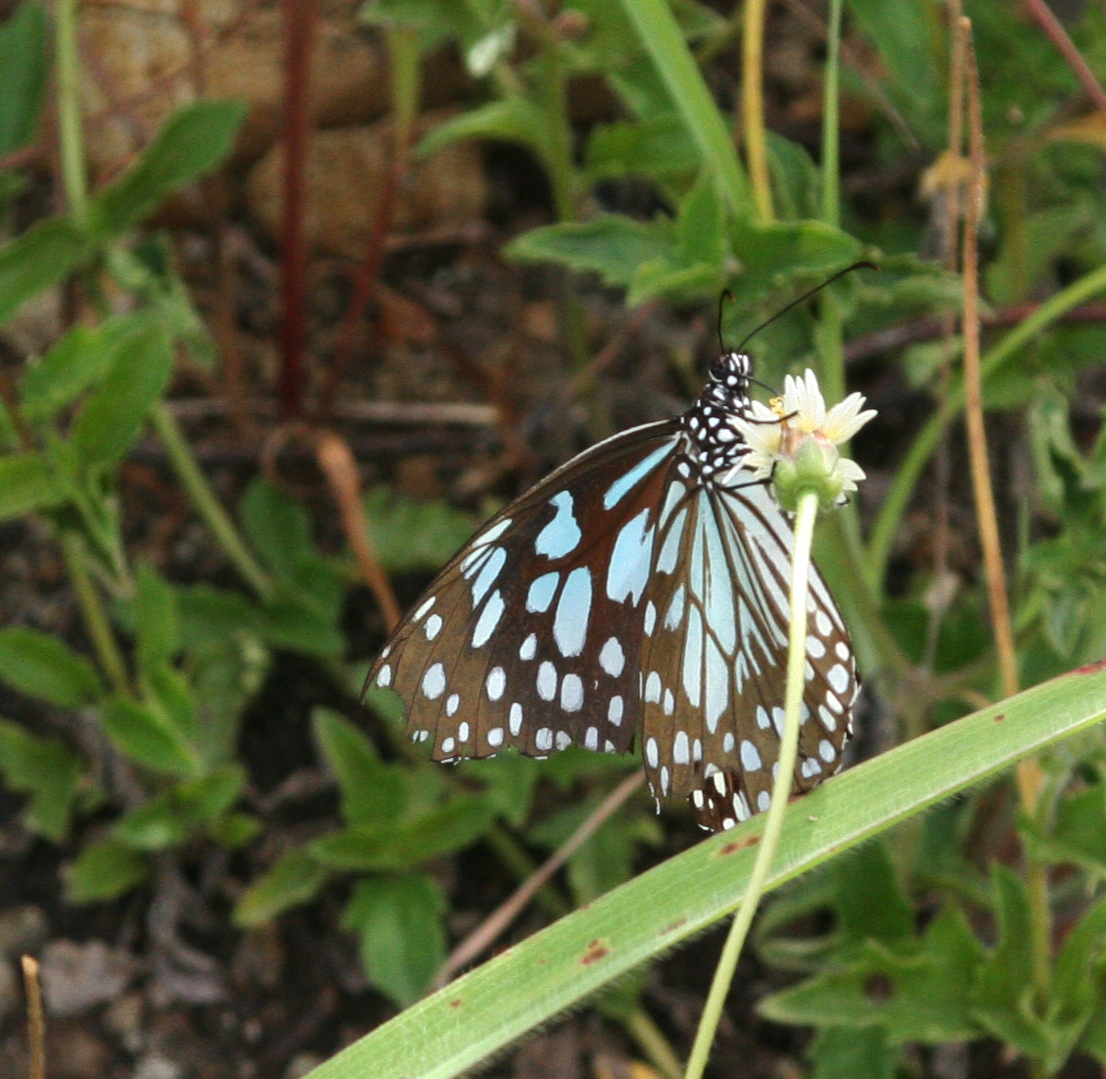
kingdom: Animalia
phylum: Arthropoda
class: Insecta
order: Lepidoptera
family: Nymphalidae
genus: Tirumala
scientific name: Tirumala limniace
